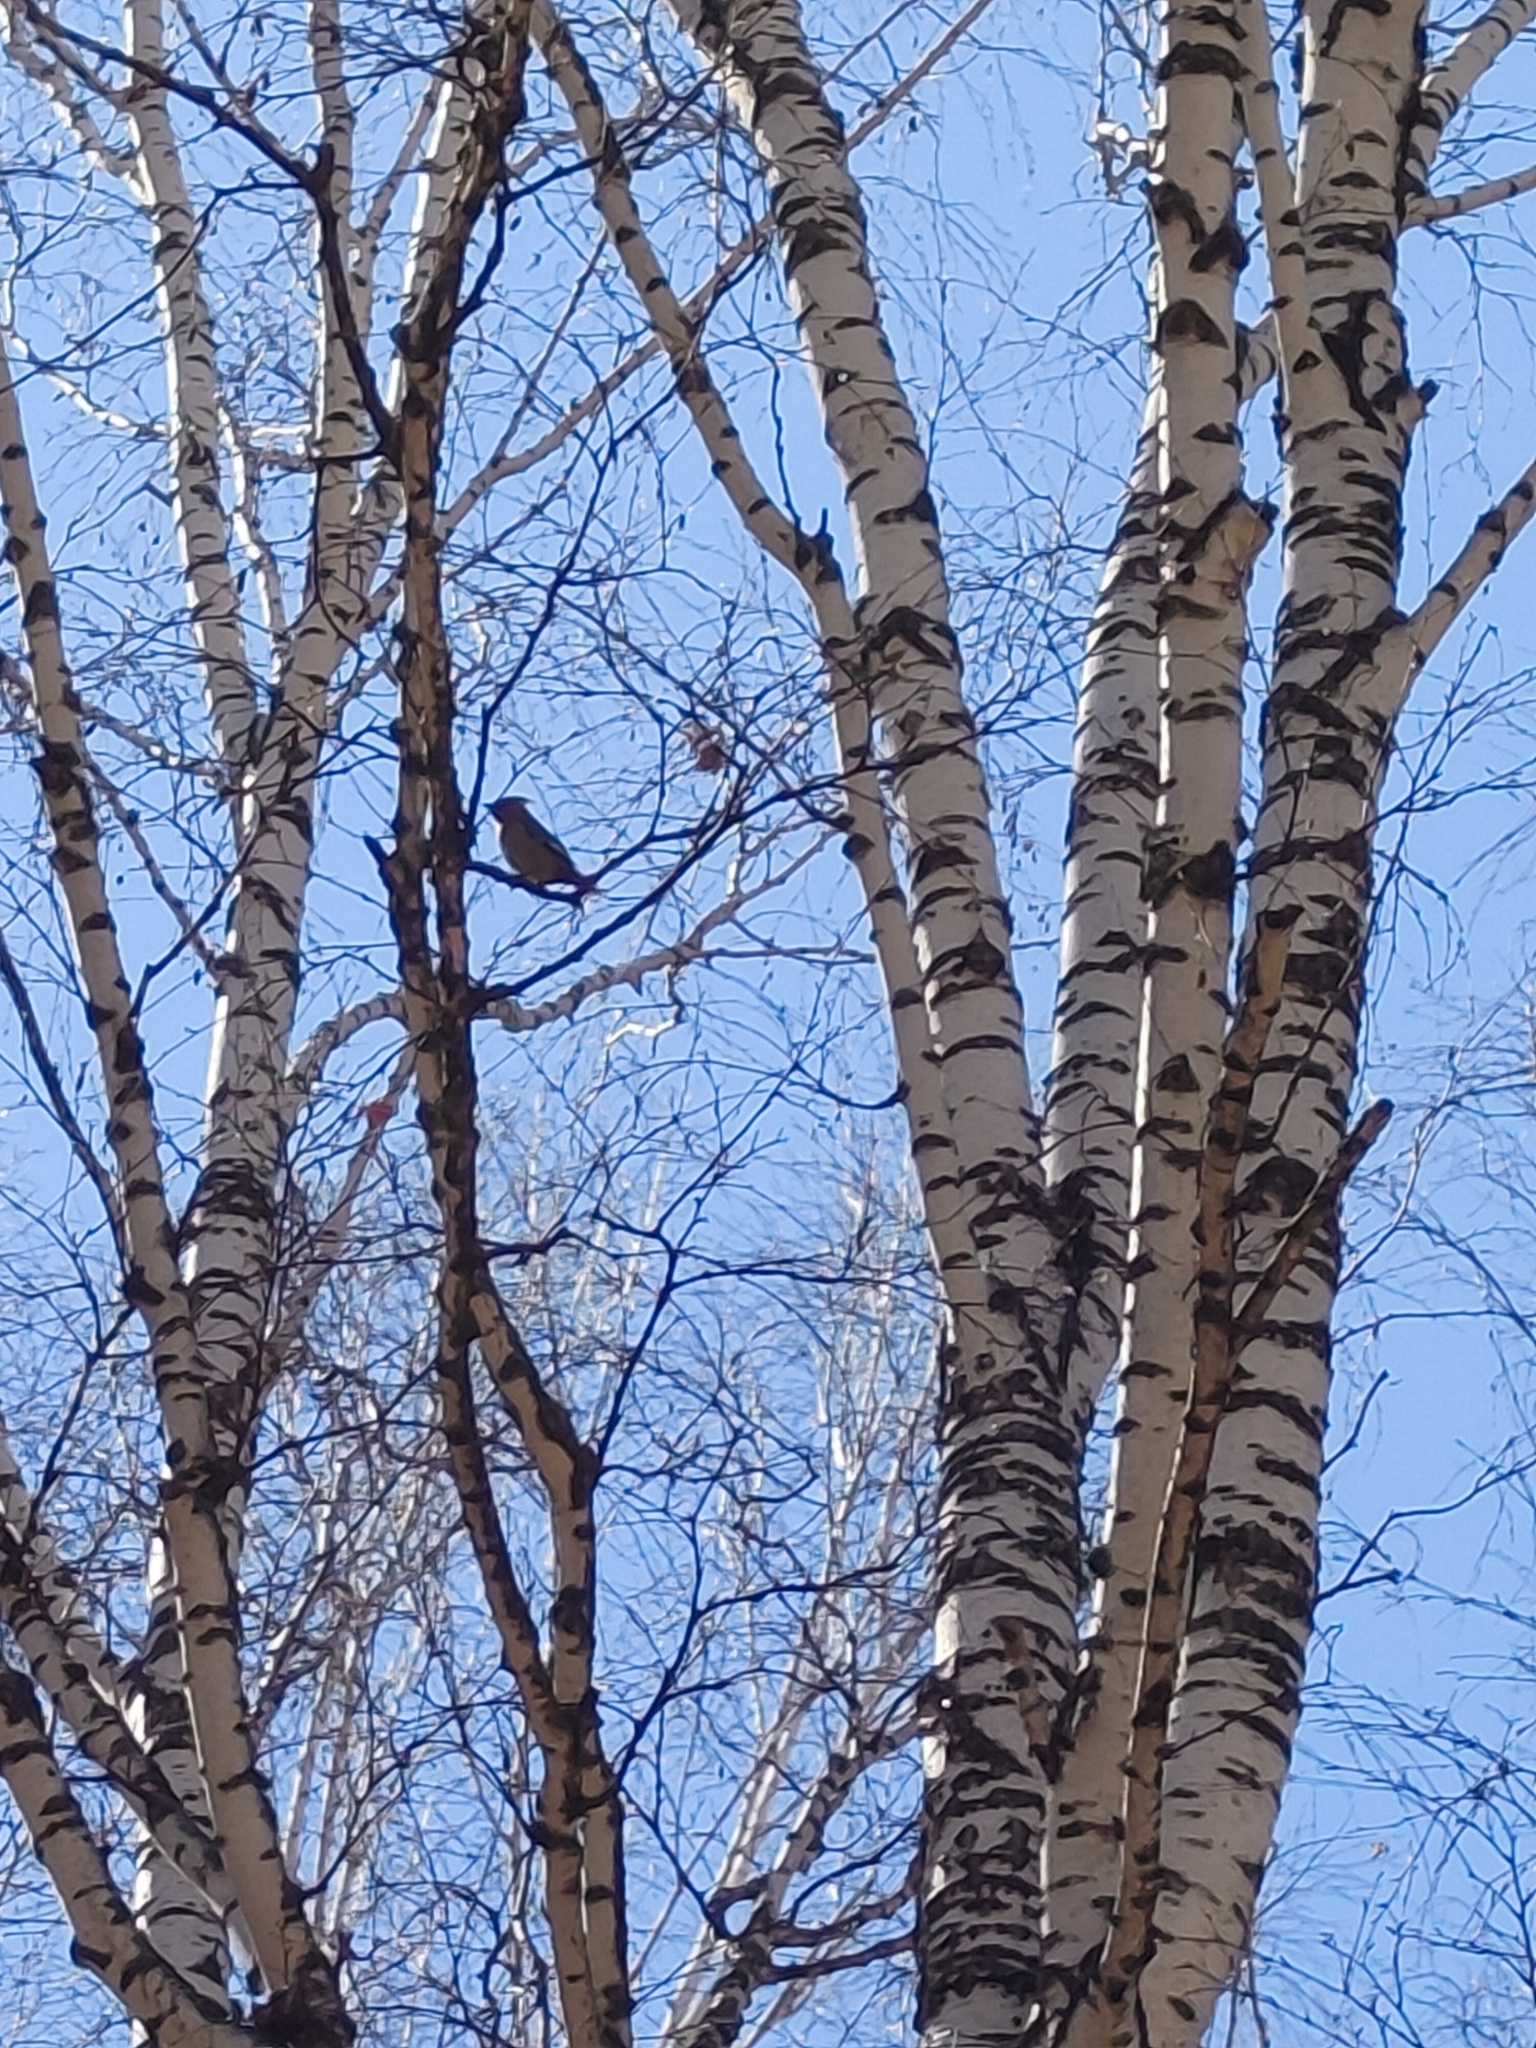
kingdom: Animalia
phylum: Chordata
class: Aves
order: Passeriformes
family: Bombycillidae
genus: Bombycilla
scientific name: Bombycilla garrulus
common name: Bohemian waxwing
